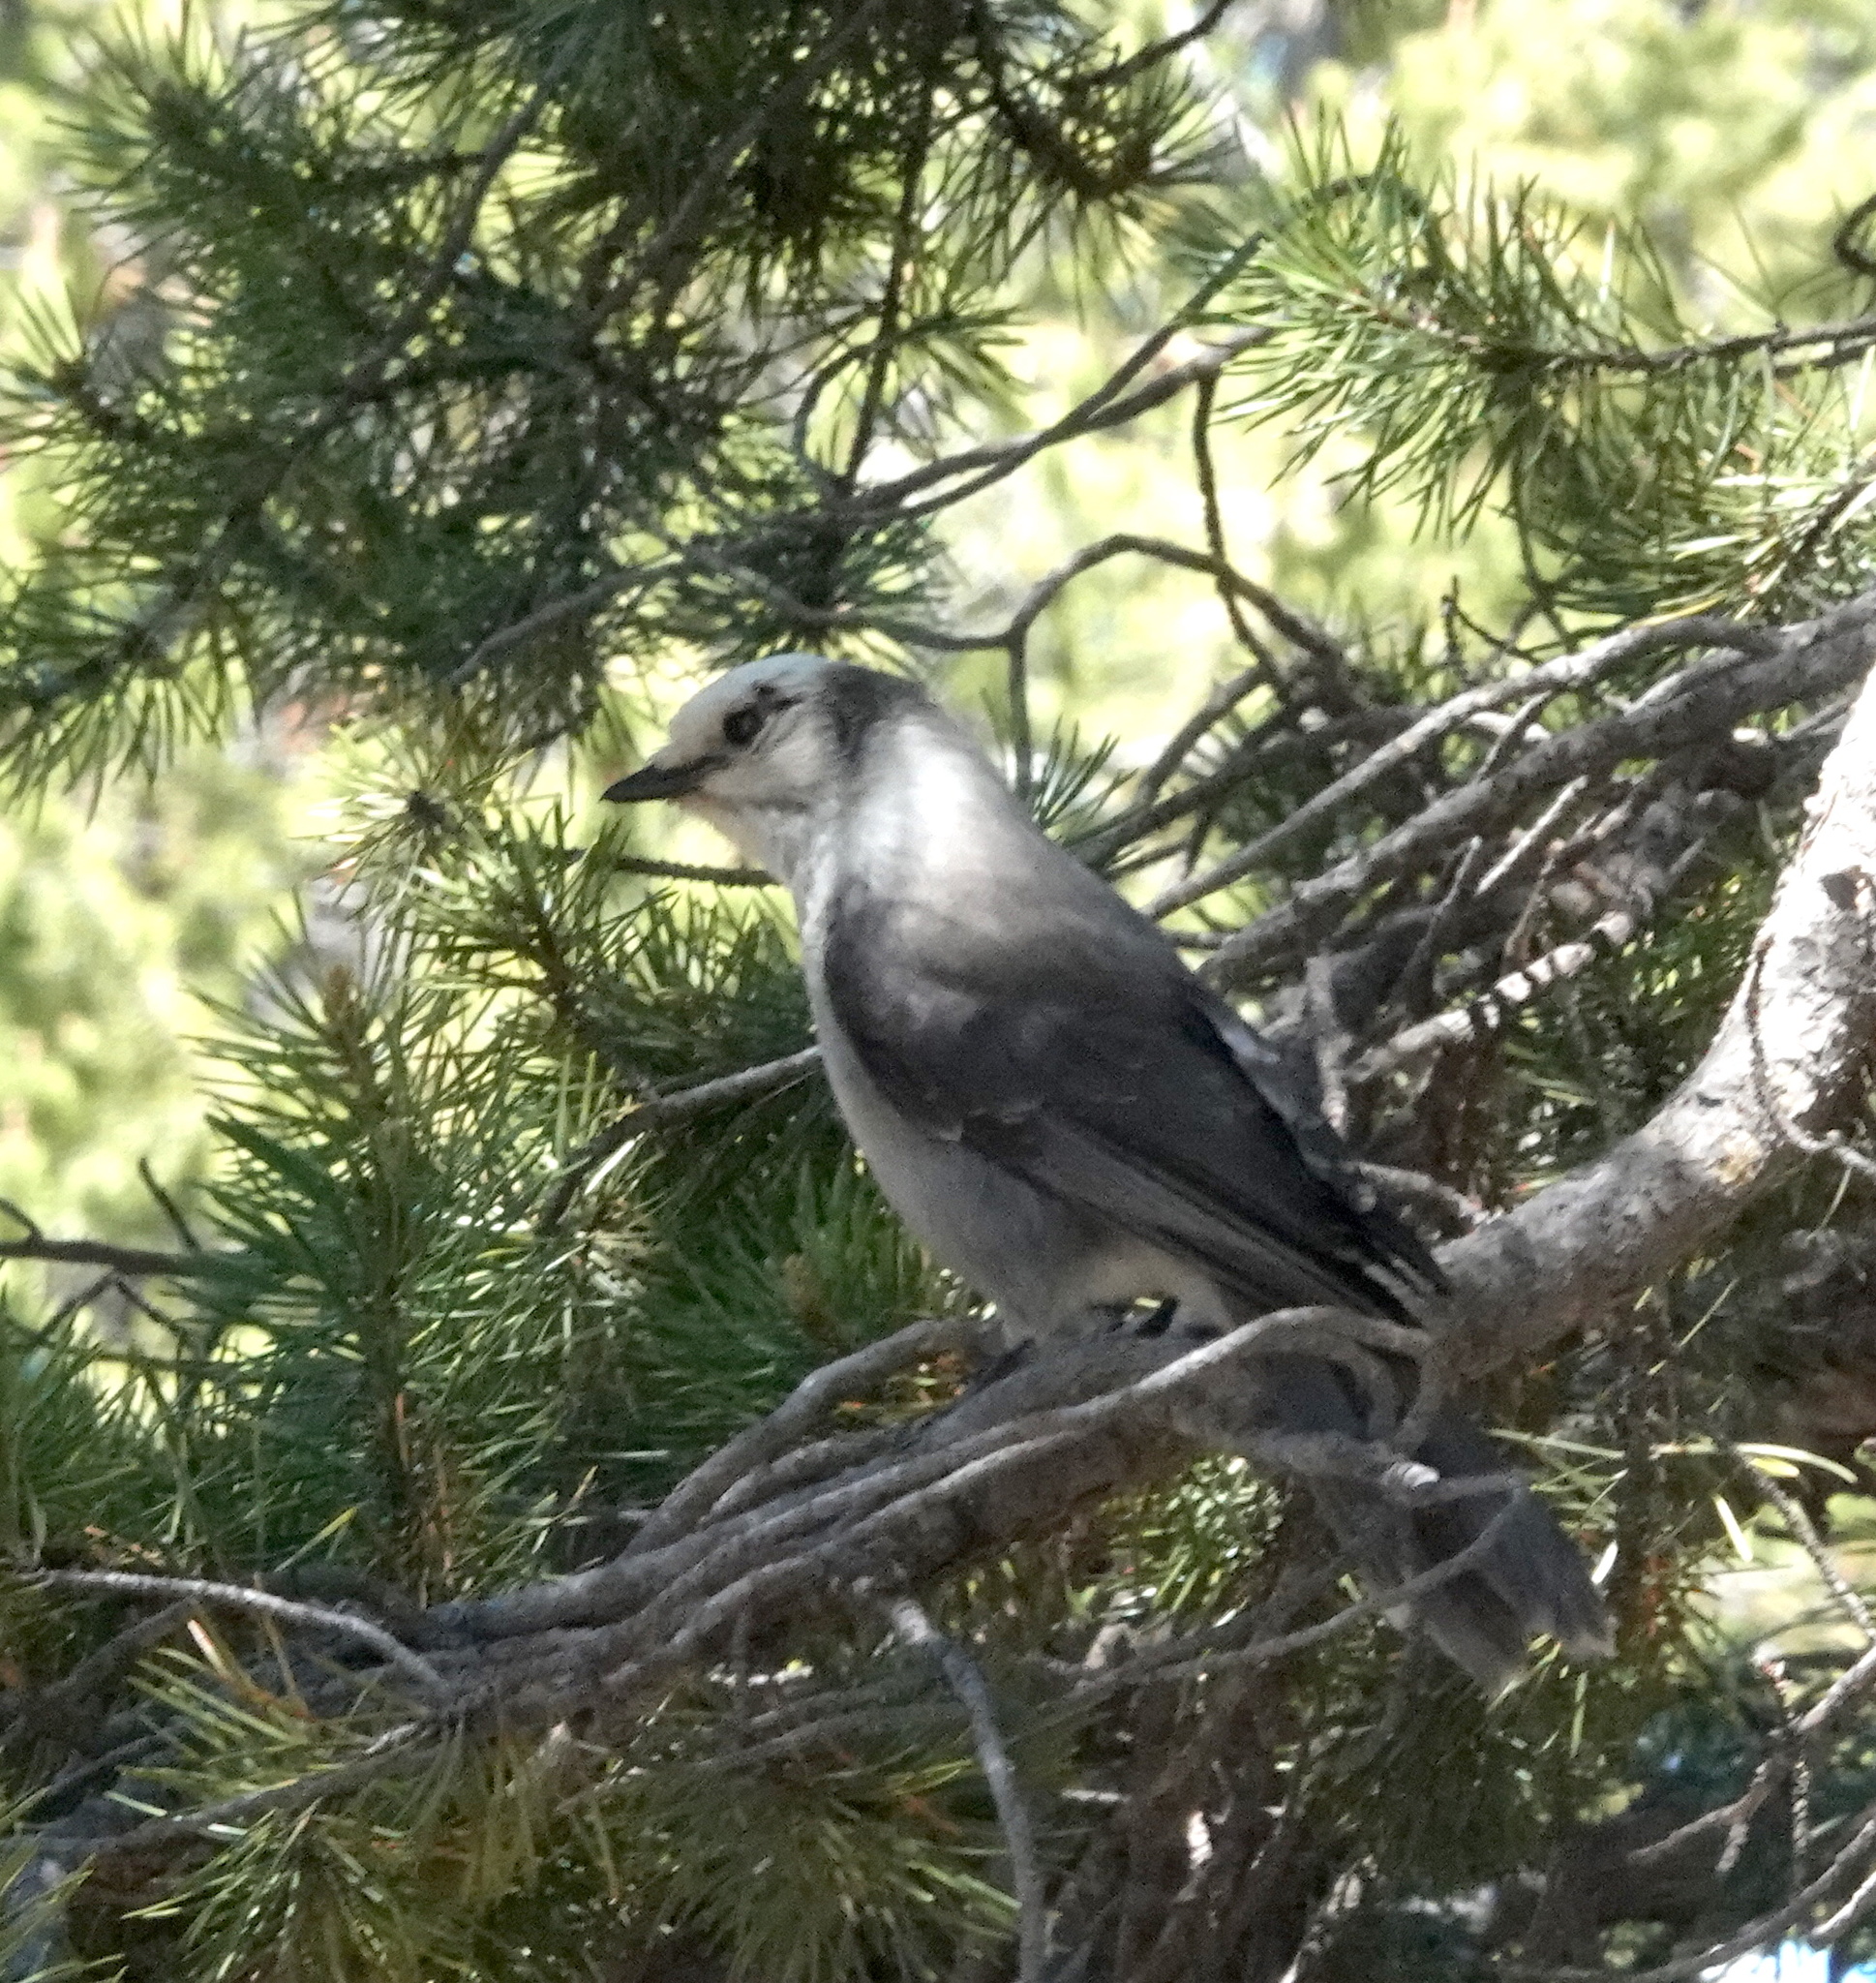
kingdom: Animalia
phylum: Chordata
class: Aves
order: Passeriformes
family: Corvidae
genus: Perisoreus
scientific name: Perisoreus canadensis
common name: Gray jay
